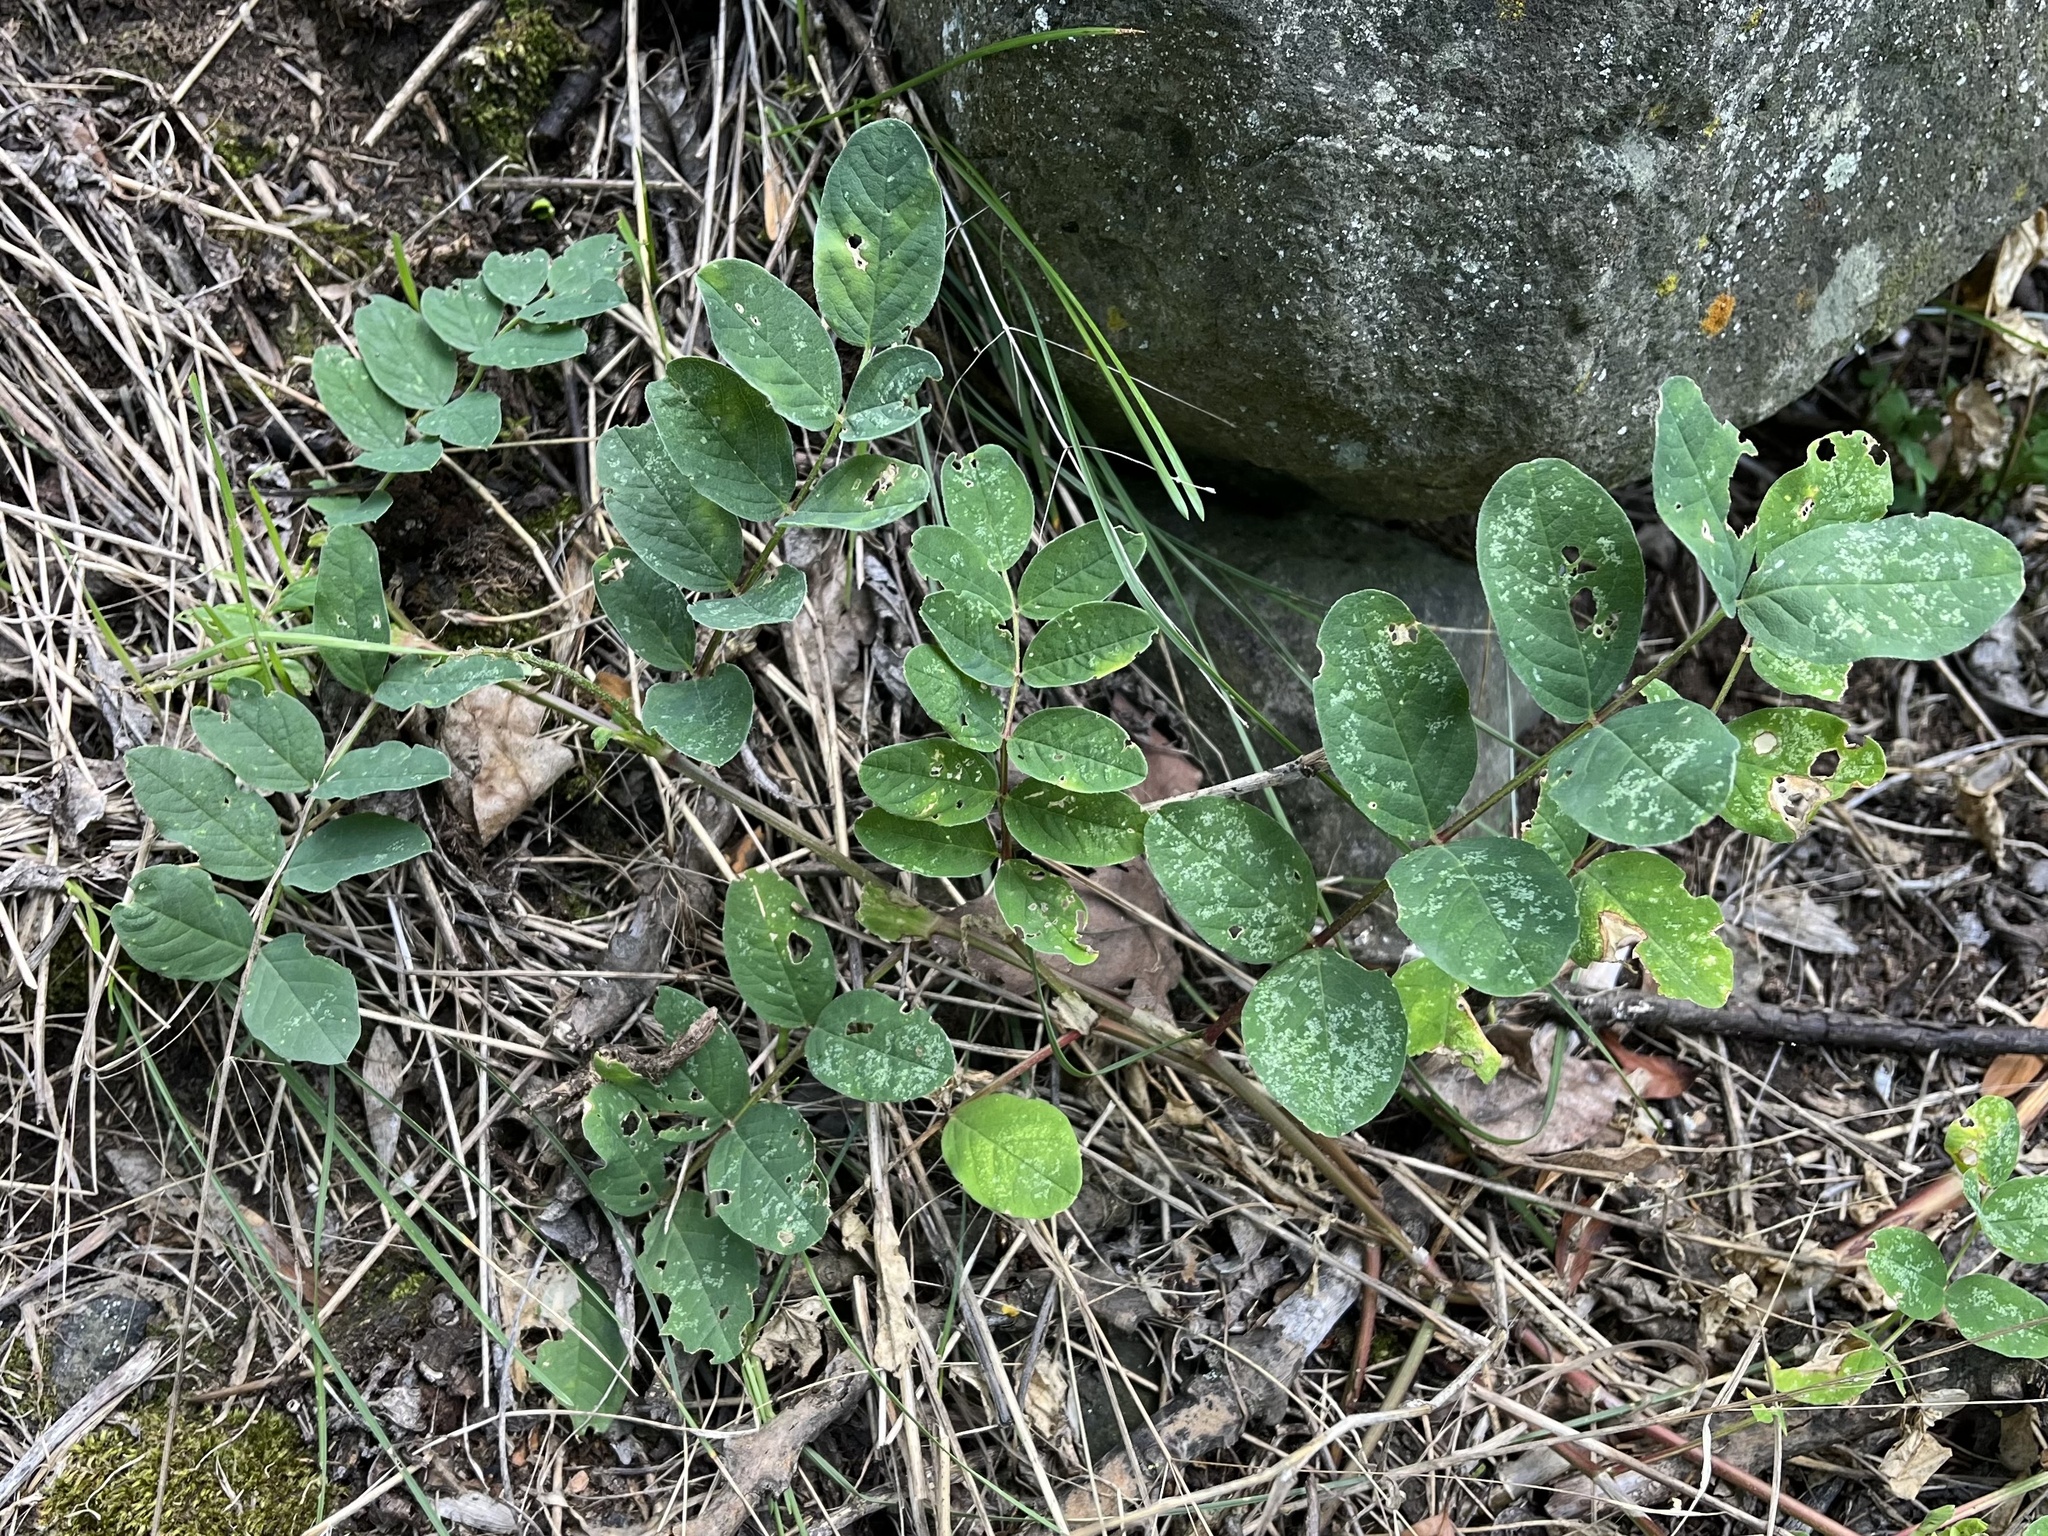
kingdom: Plantae
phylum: Tracheophyta
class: Magnoliopsida
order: Fabales
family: Fabaceae
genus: Astragalus
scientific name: Astragalus glycyphyllos
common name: Wild liquorice
